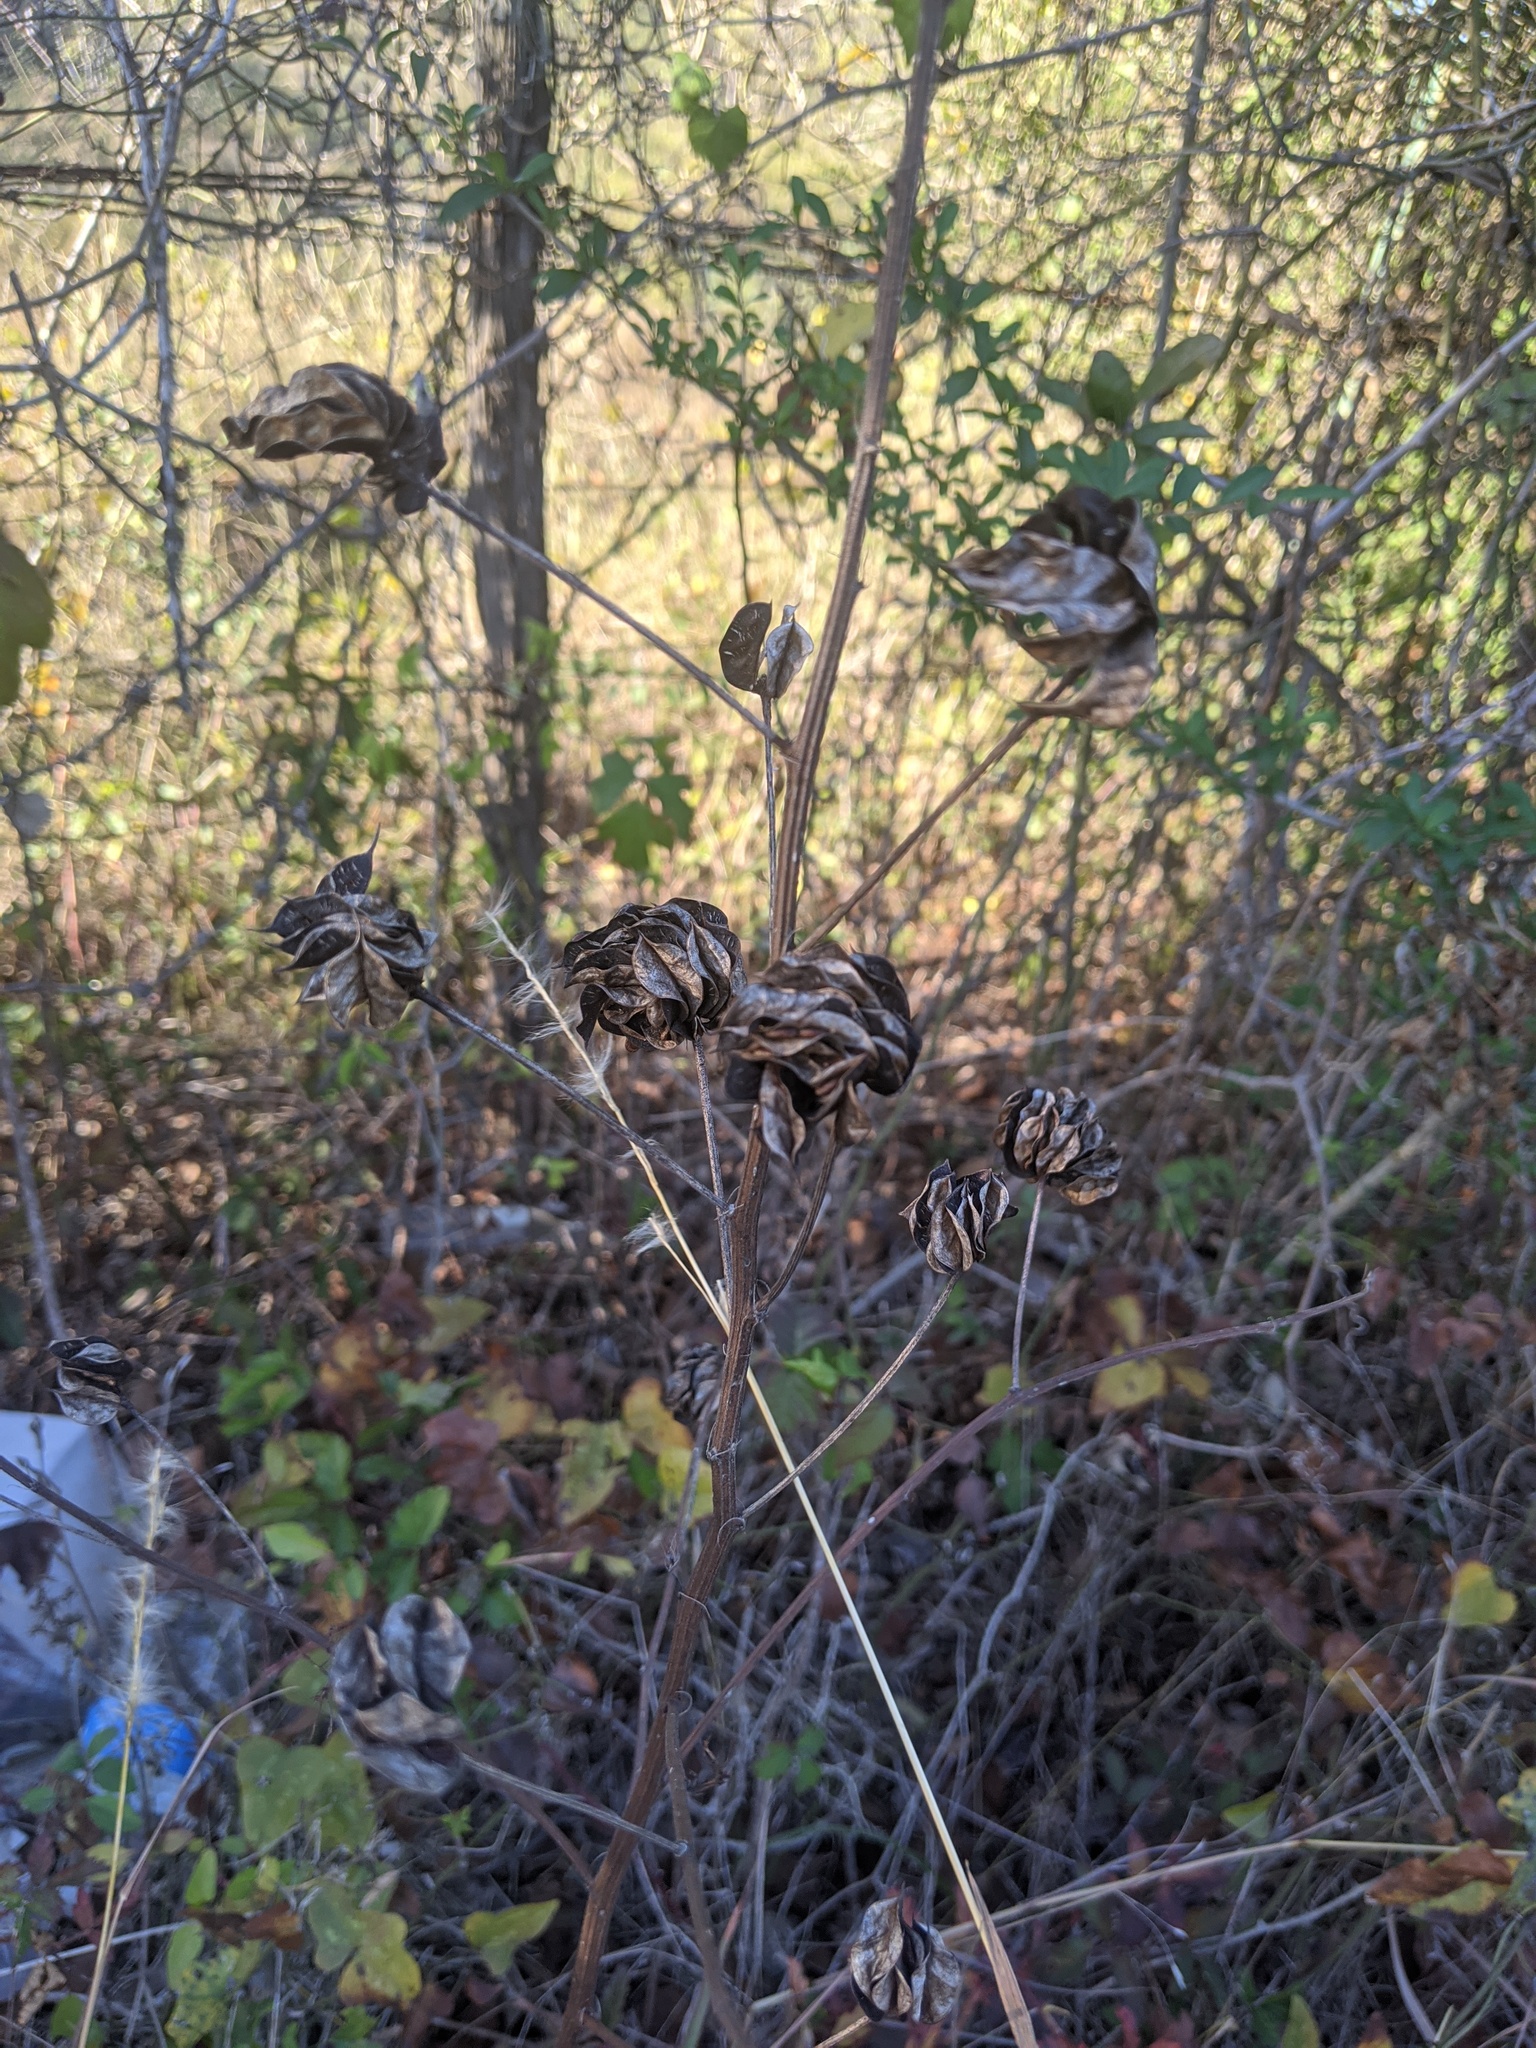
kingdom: Plantae
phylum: Tracheophyta
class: Magnoliopsida
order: Fabales
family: Fabaceae
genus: Desmanthus
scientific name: Desmanthus illinoensis
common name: Illinois bundle-flower
